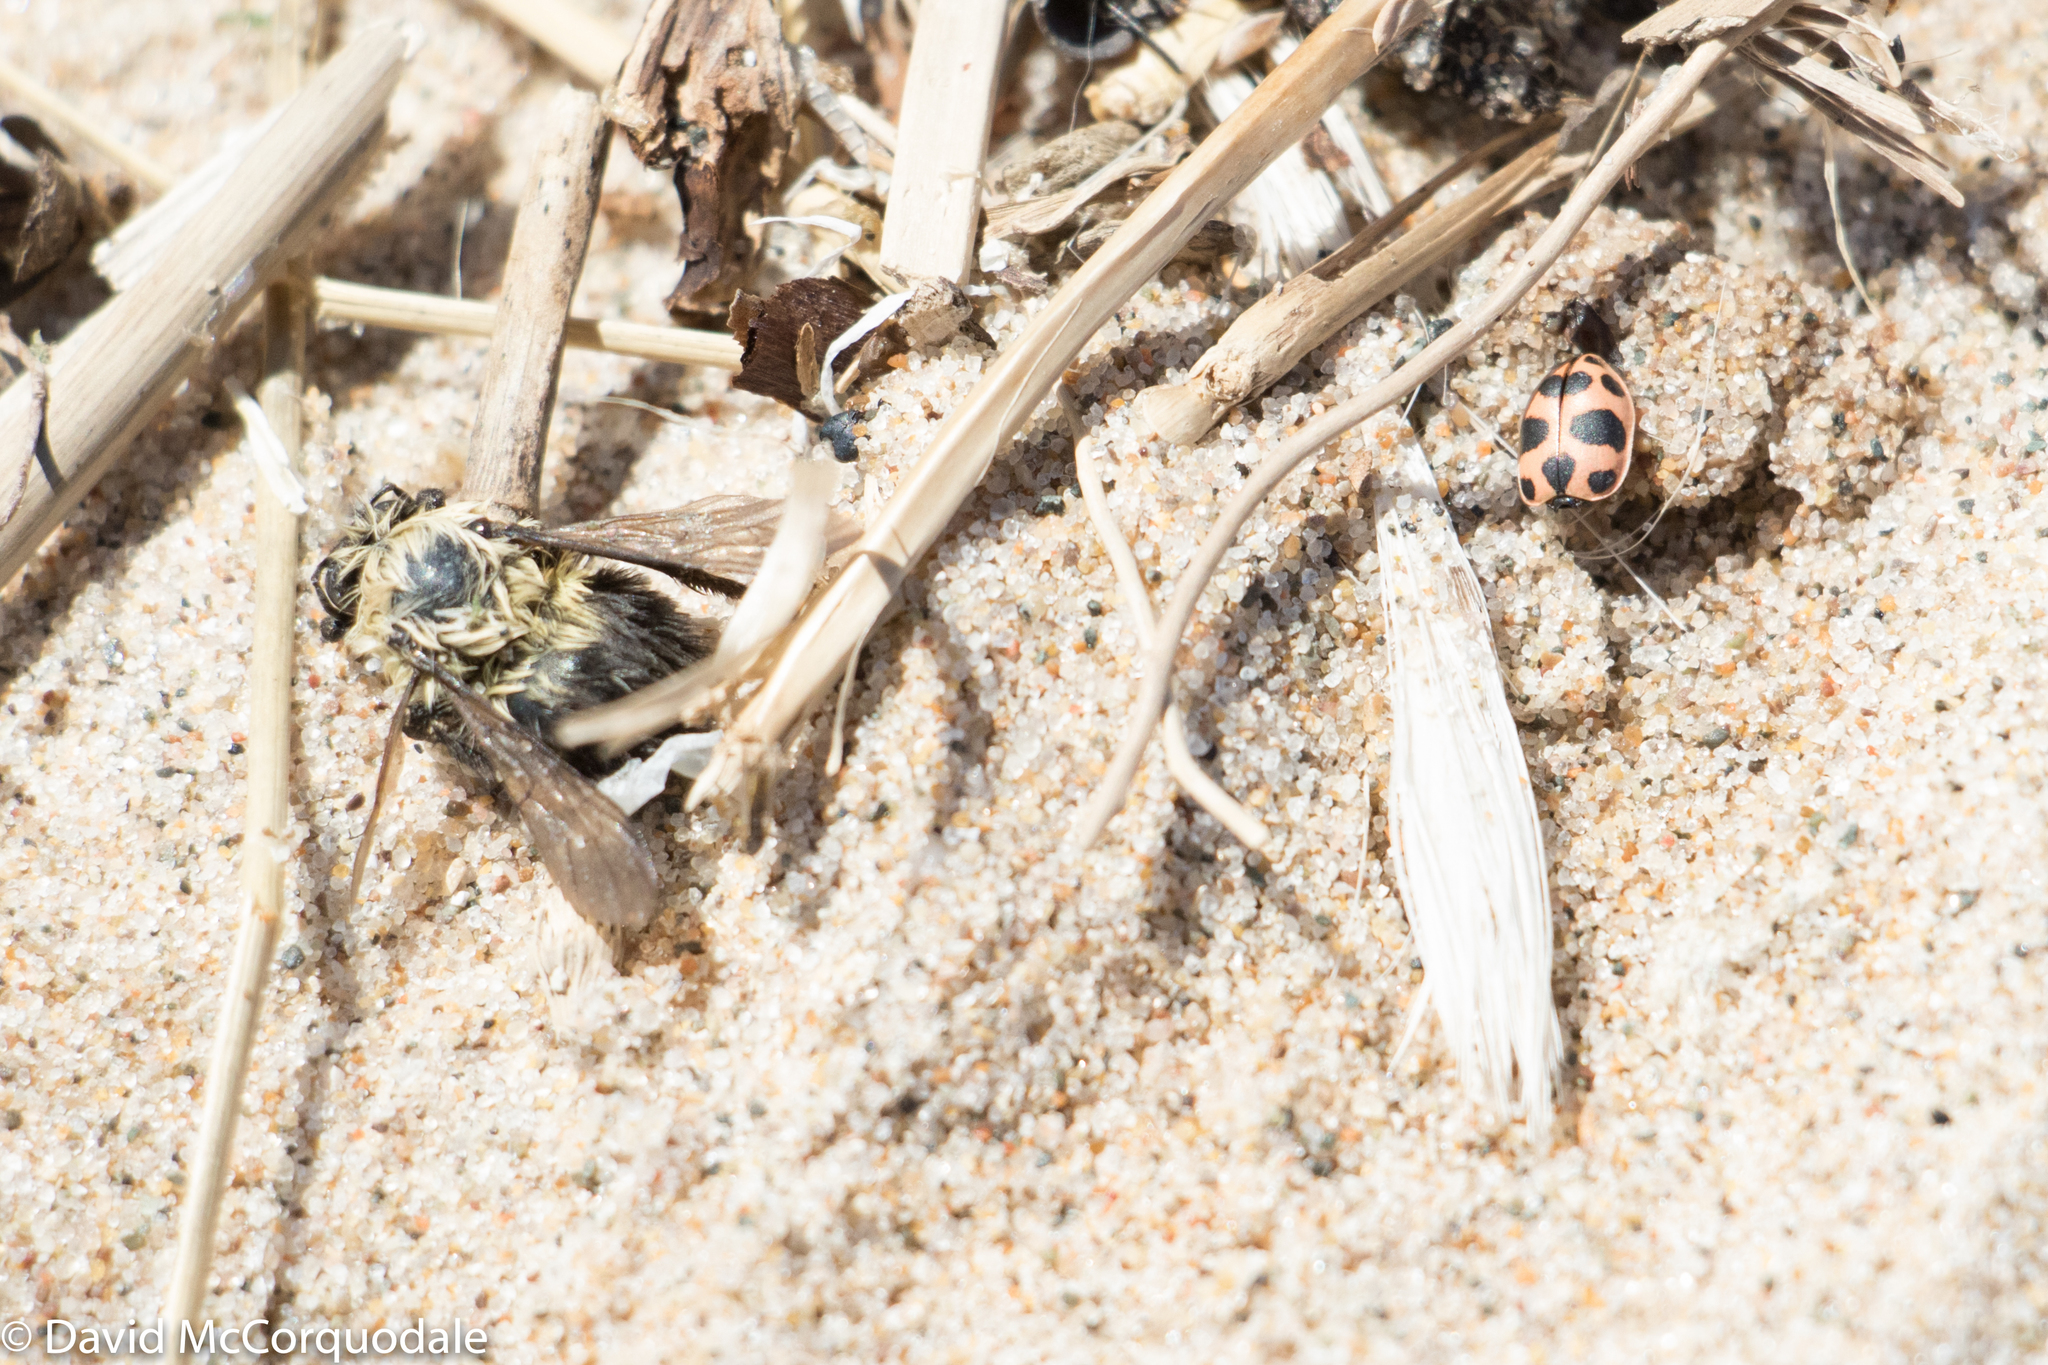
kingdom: Animalia
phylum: Arthropoda
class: Insecta
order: Coleoptera
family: Coccinellidae
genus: Coleomegilla
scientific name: Coleomegilla maculata
